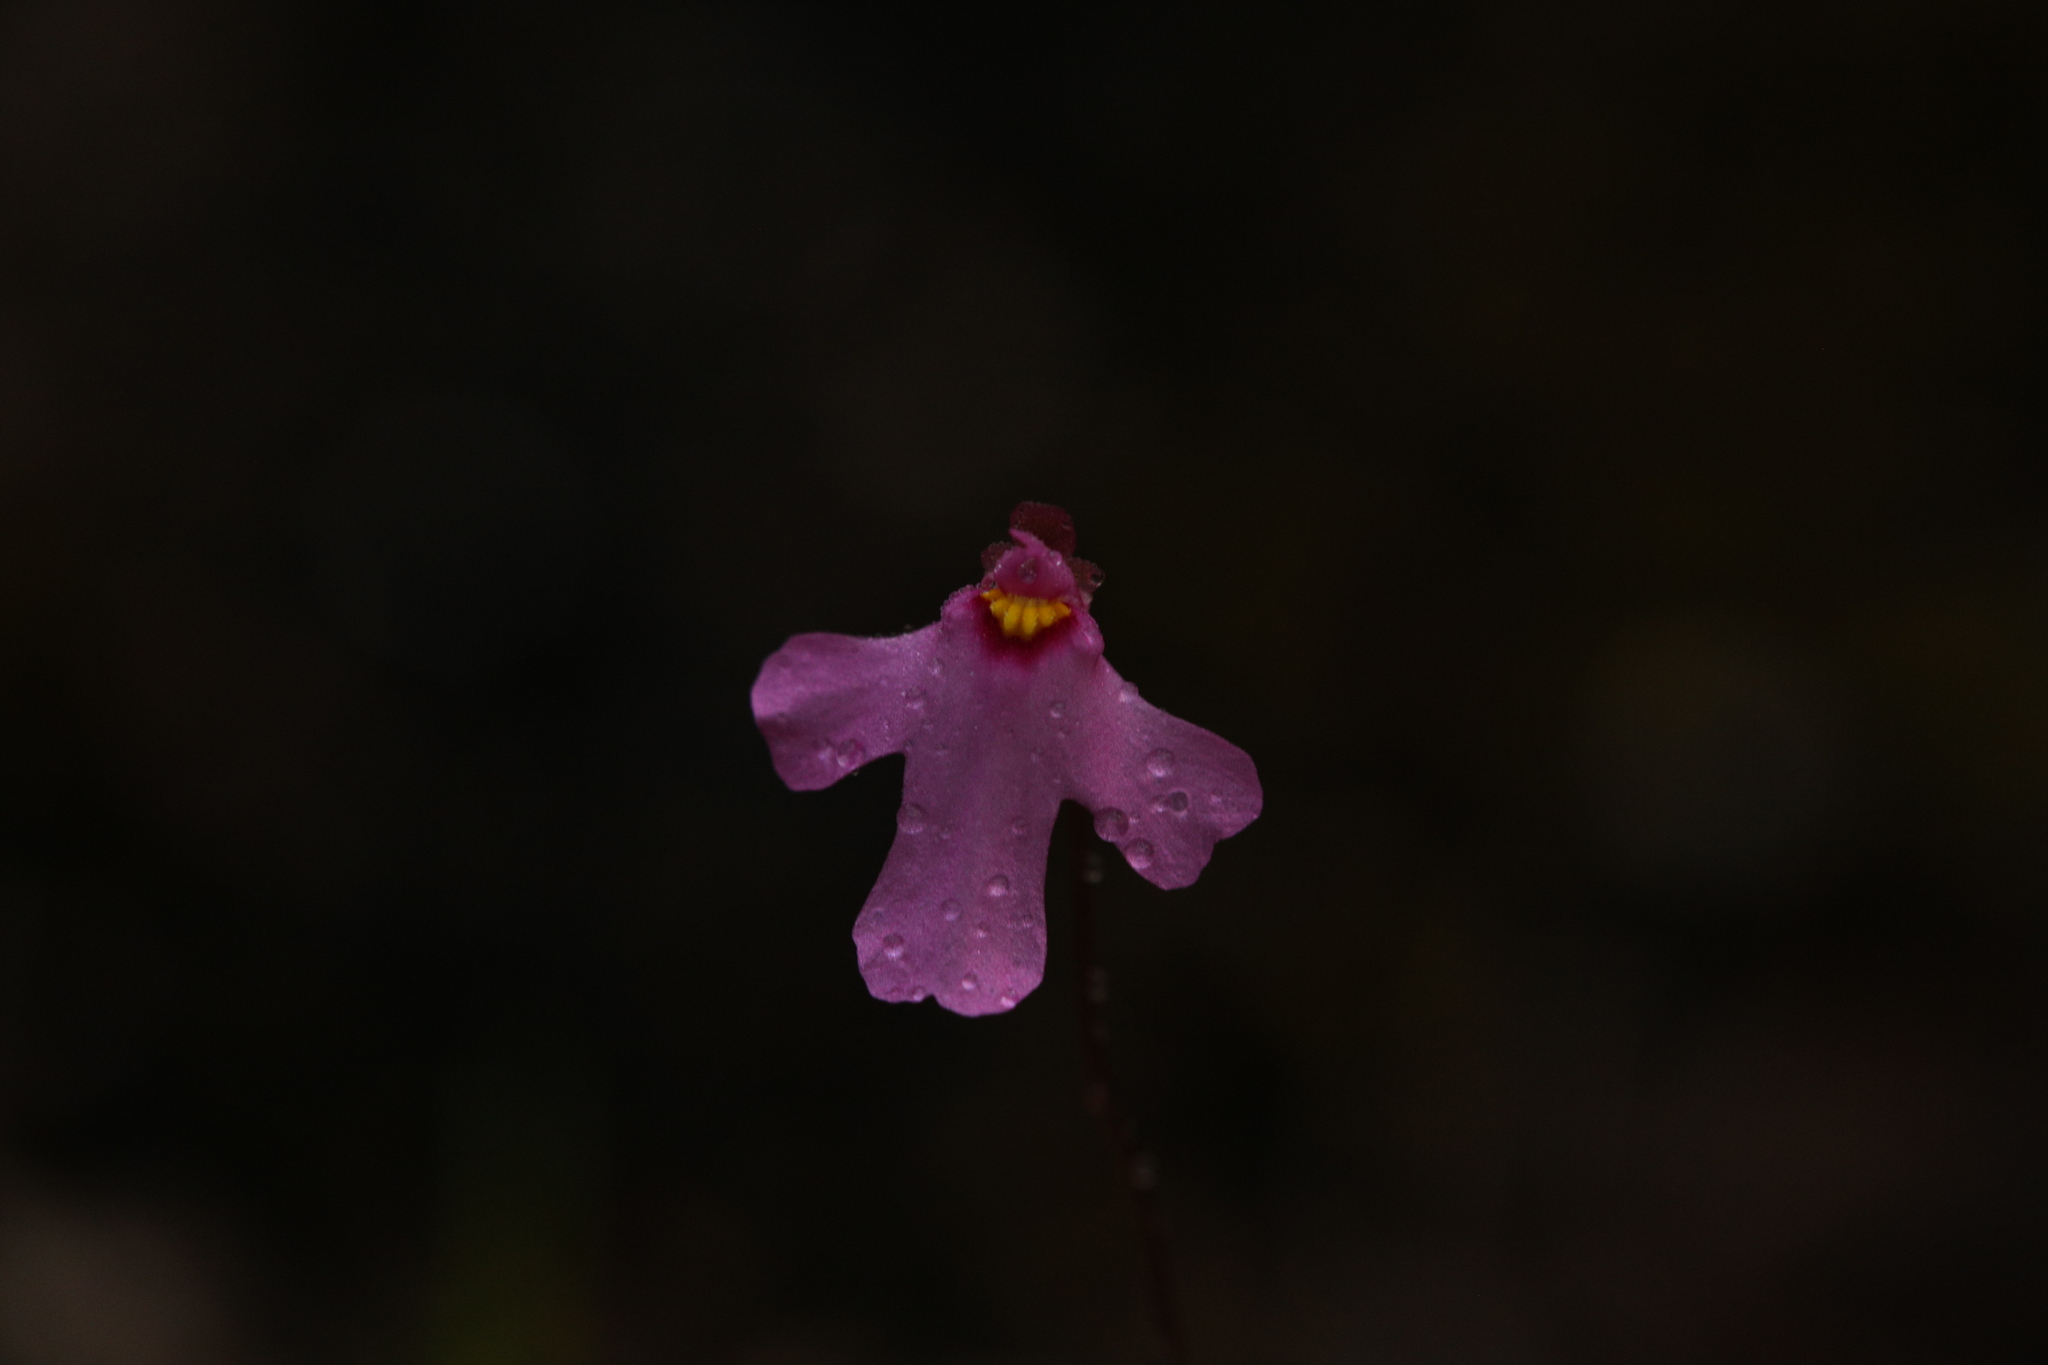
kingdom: Plantae
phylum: Tracheophyta
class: Magnoliopsida
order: Lamiales
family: Lentibulariaceae
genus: Utricularia
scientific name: Utricularia multifida
